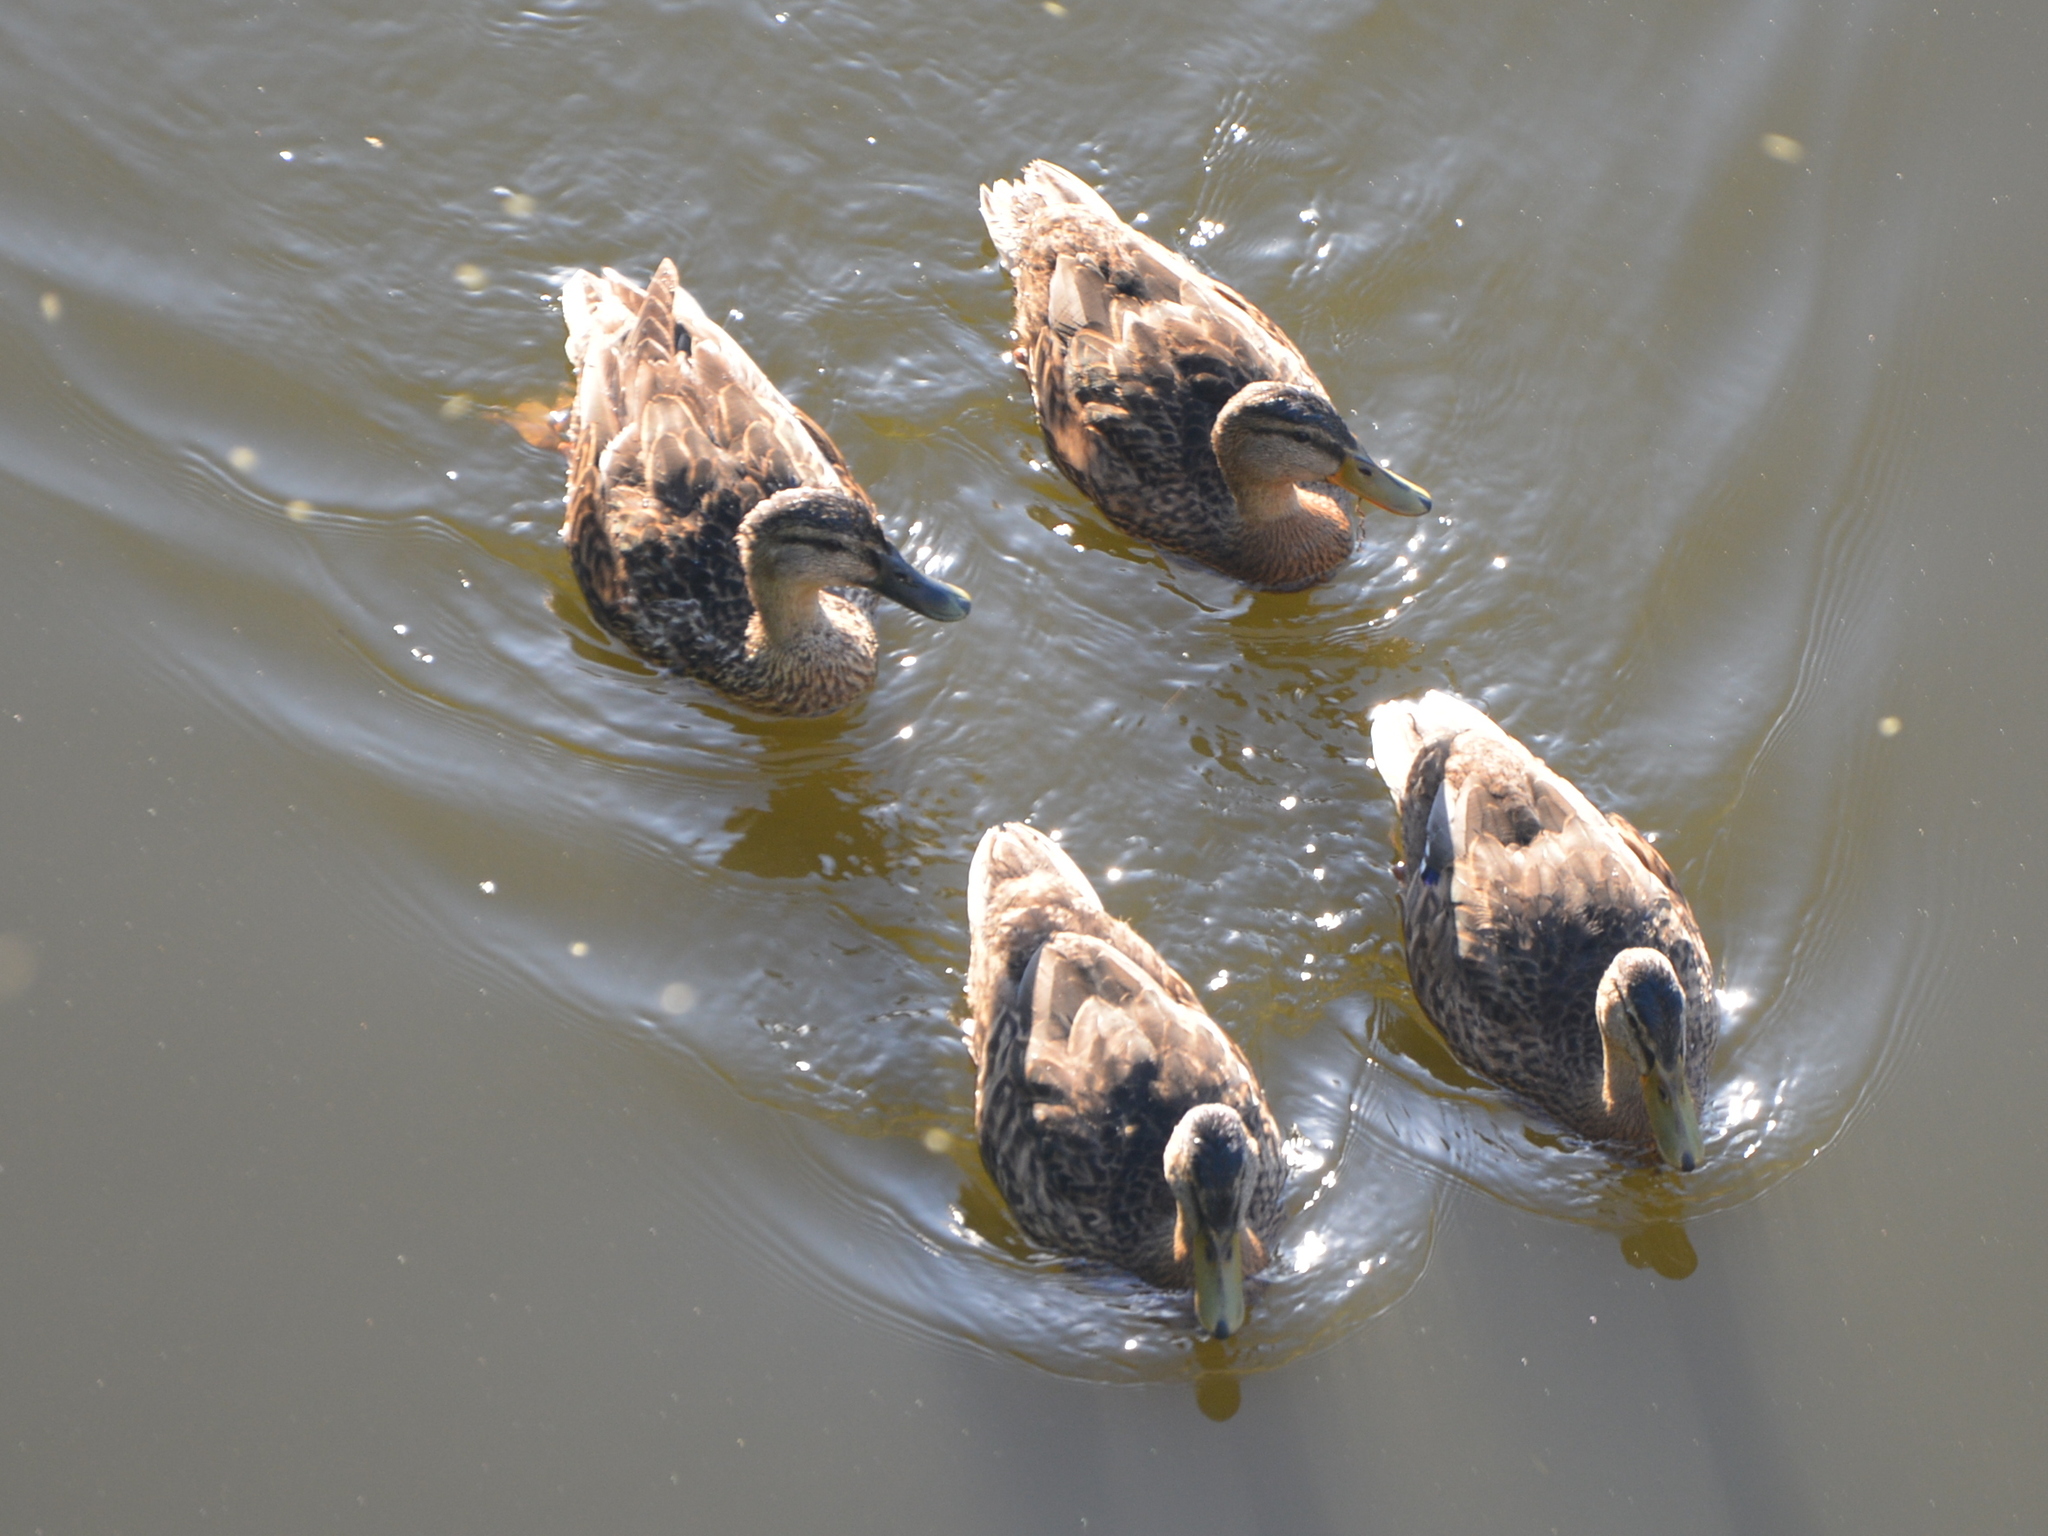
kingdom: Animalia
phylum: Chordata
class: Aves
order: Anseriformes
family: Anatidae
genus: Anas
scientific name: Anas platyrhynchos
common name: Mallard
